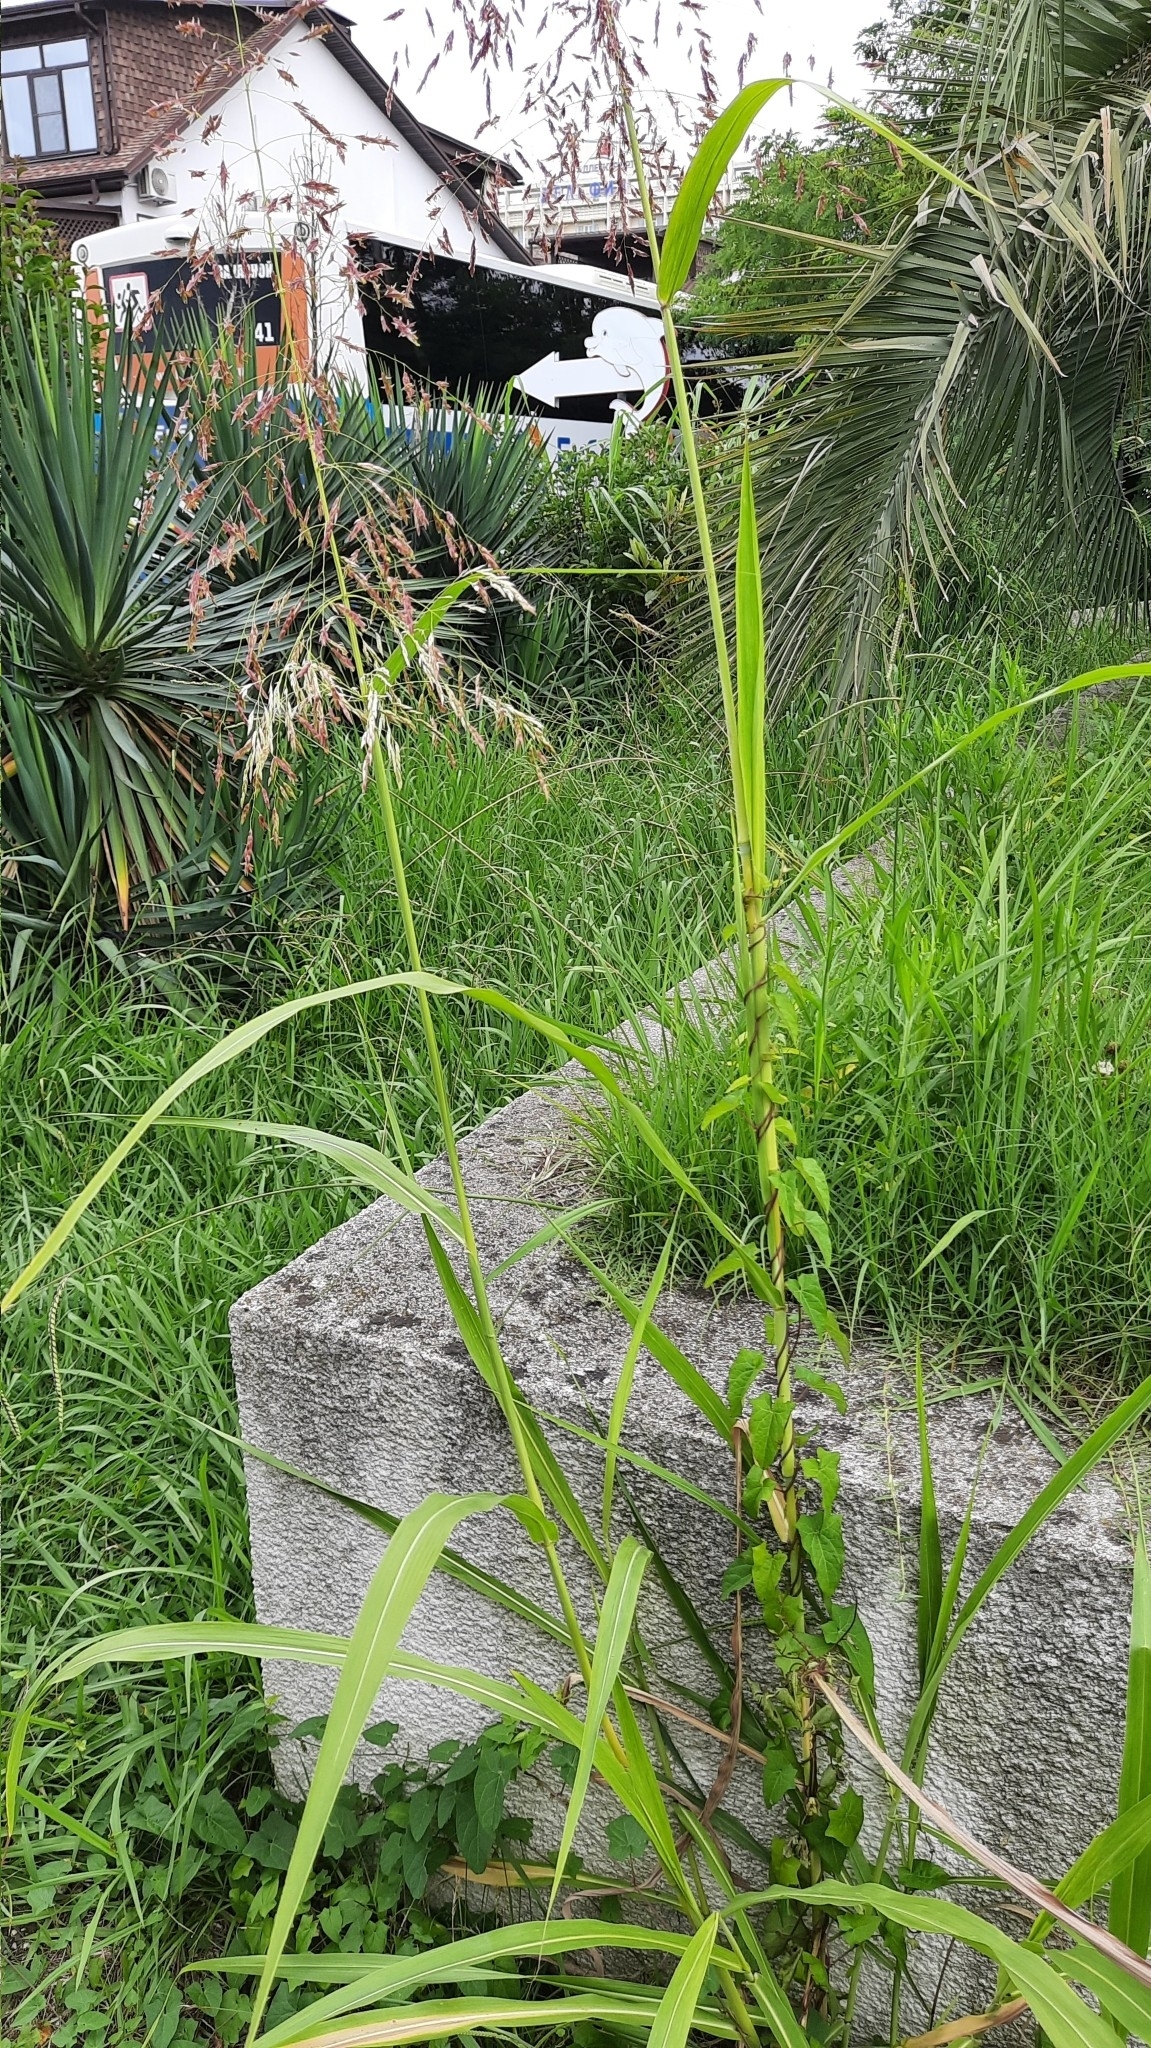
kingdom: Plantae
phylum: Tracheophyta
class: Liliopsida
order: Poales
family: Poaceae
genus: Sorghum
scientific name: Sorghum halepense
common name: Johnson-grass
